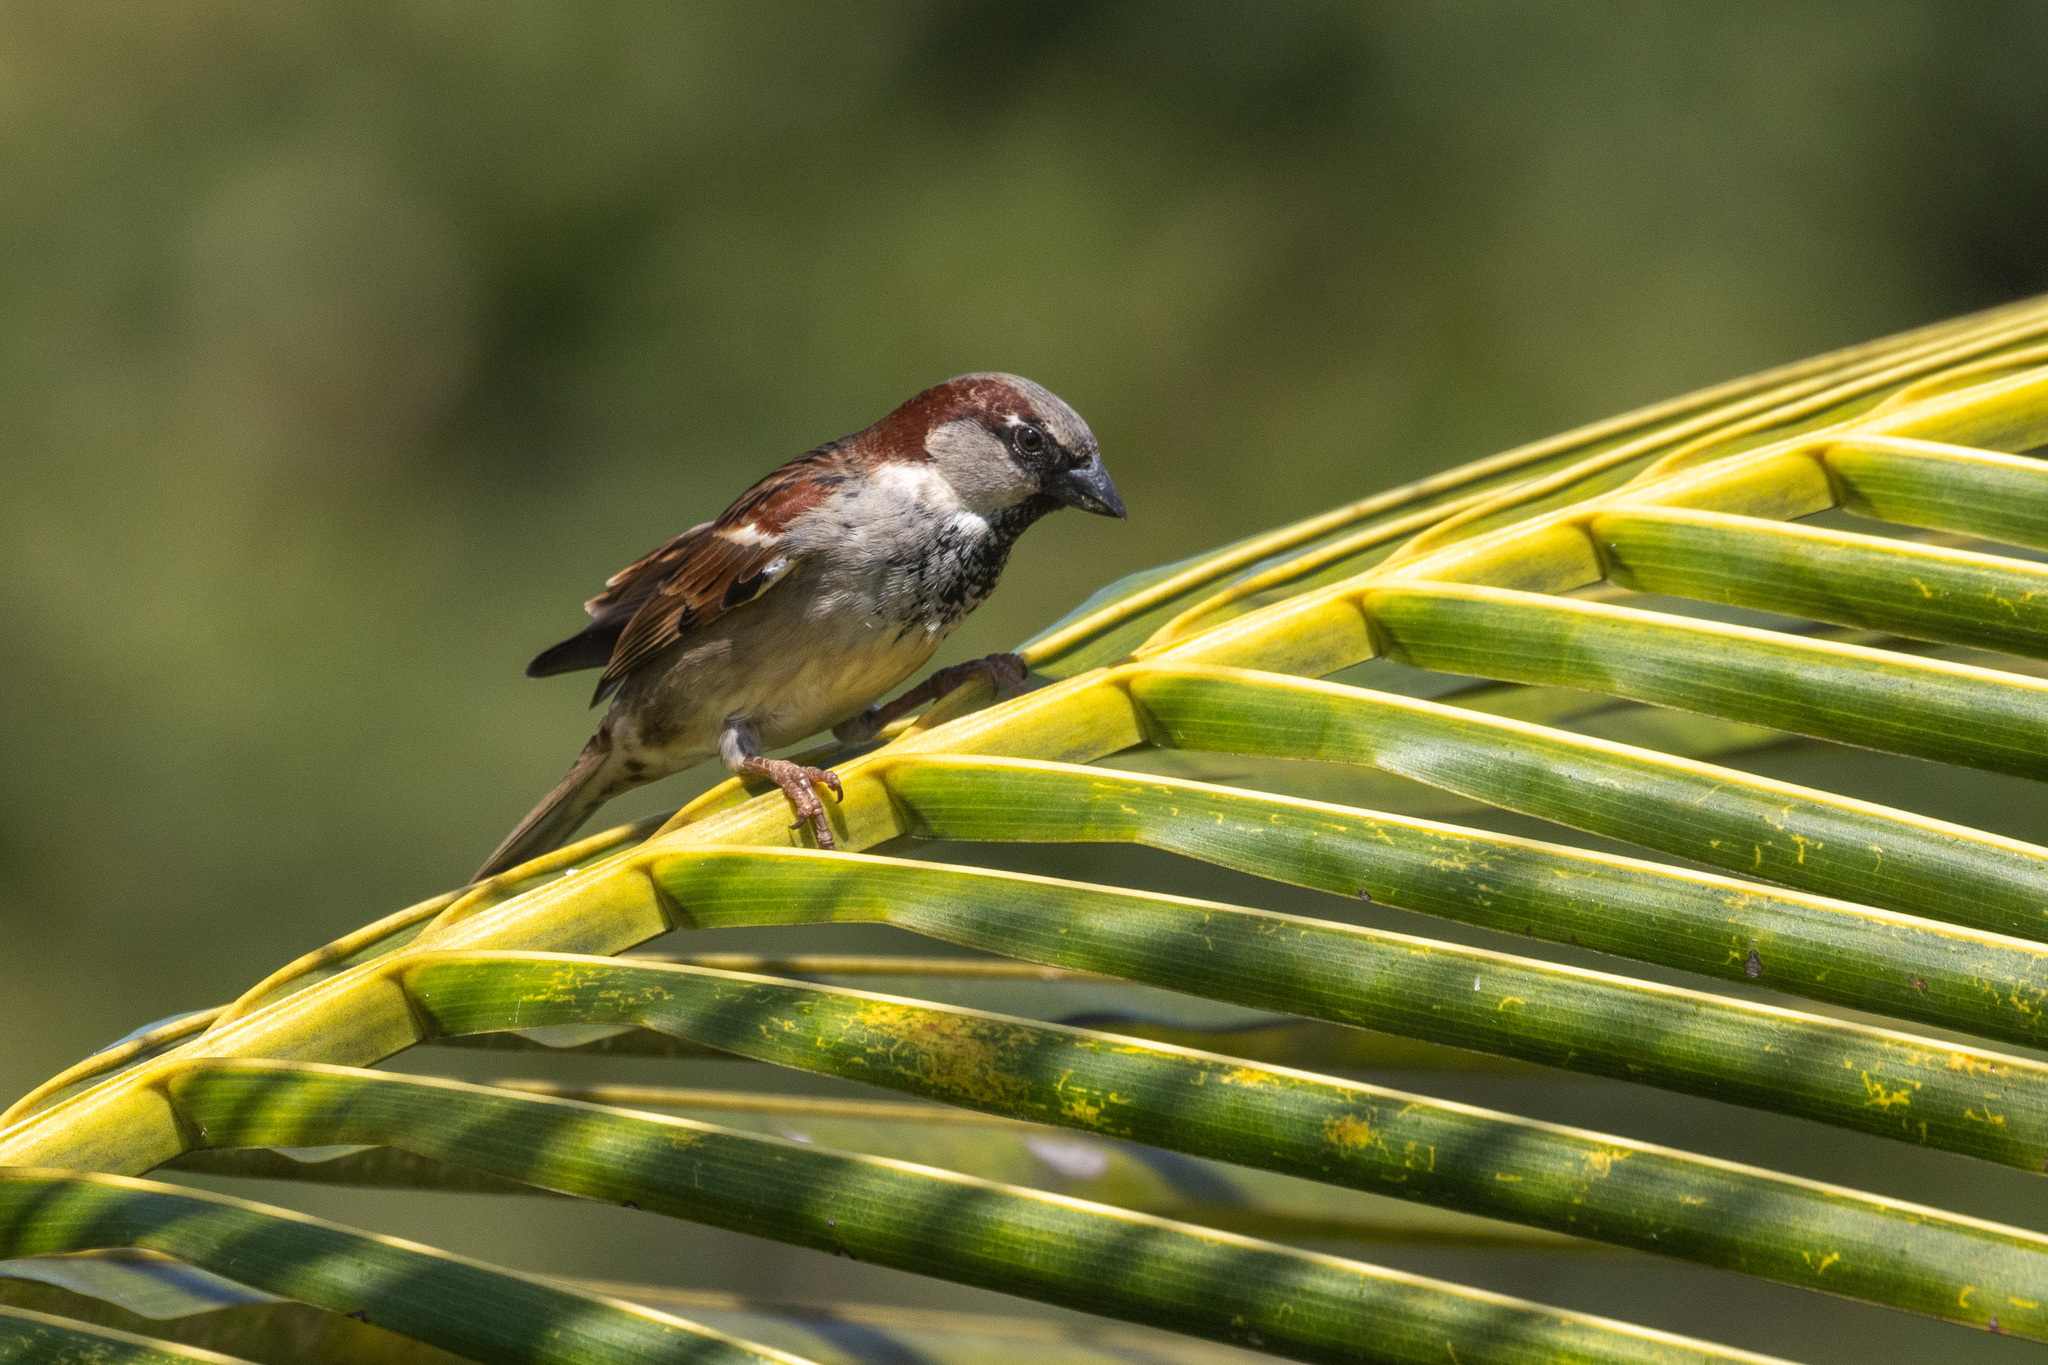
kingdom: Animalia
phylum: Chordata
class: Aves
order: Passeriformes
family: Passeridae
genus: Passer
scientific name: Passer domesticus
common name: House sparrow
